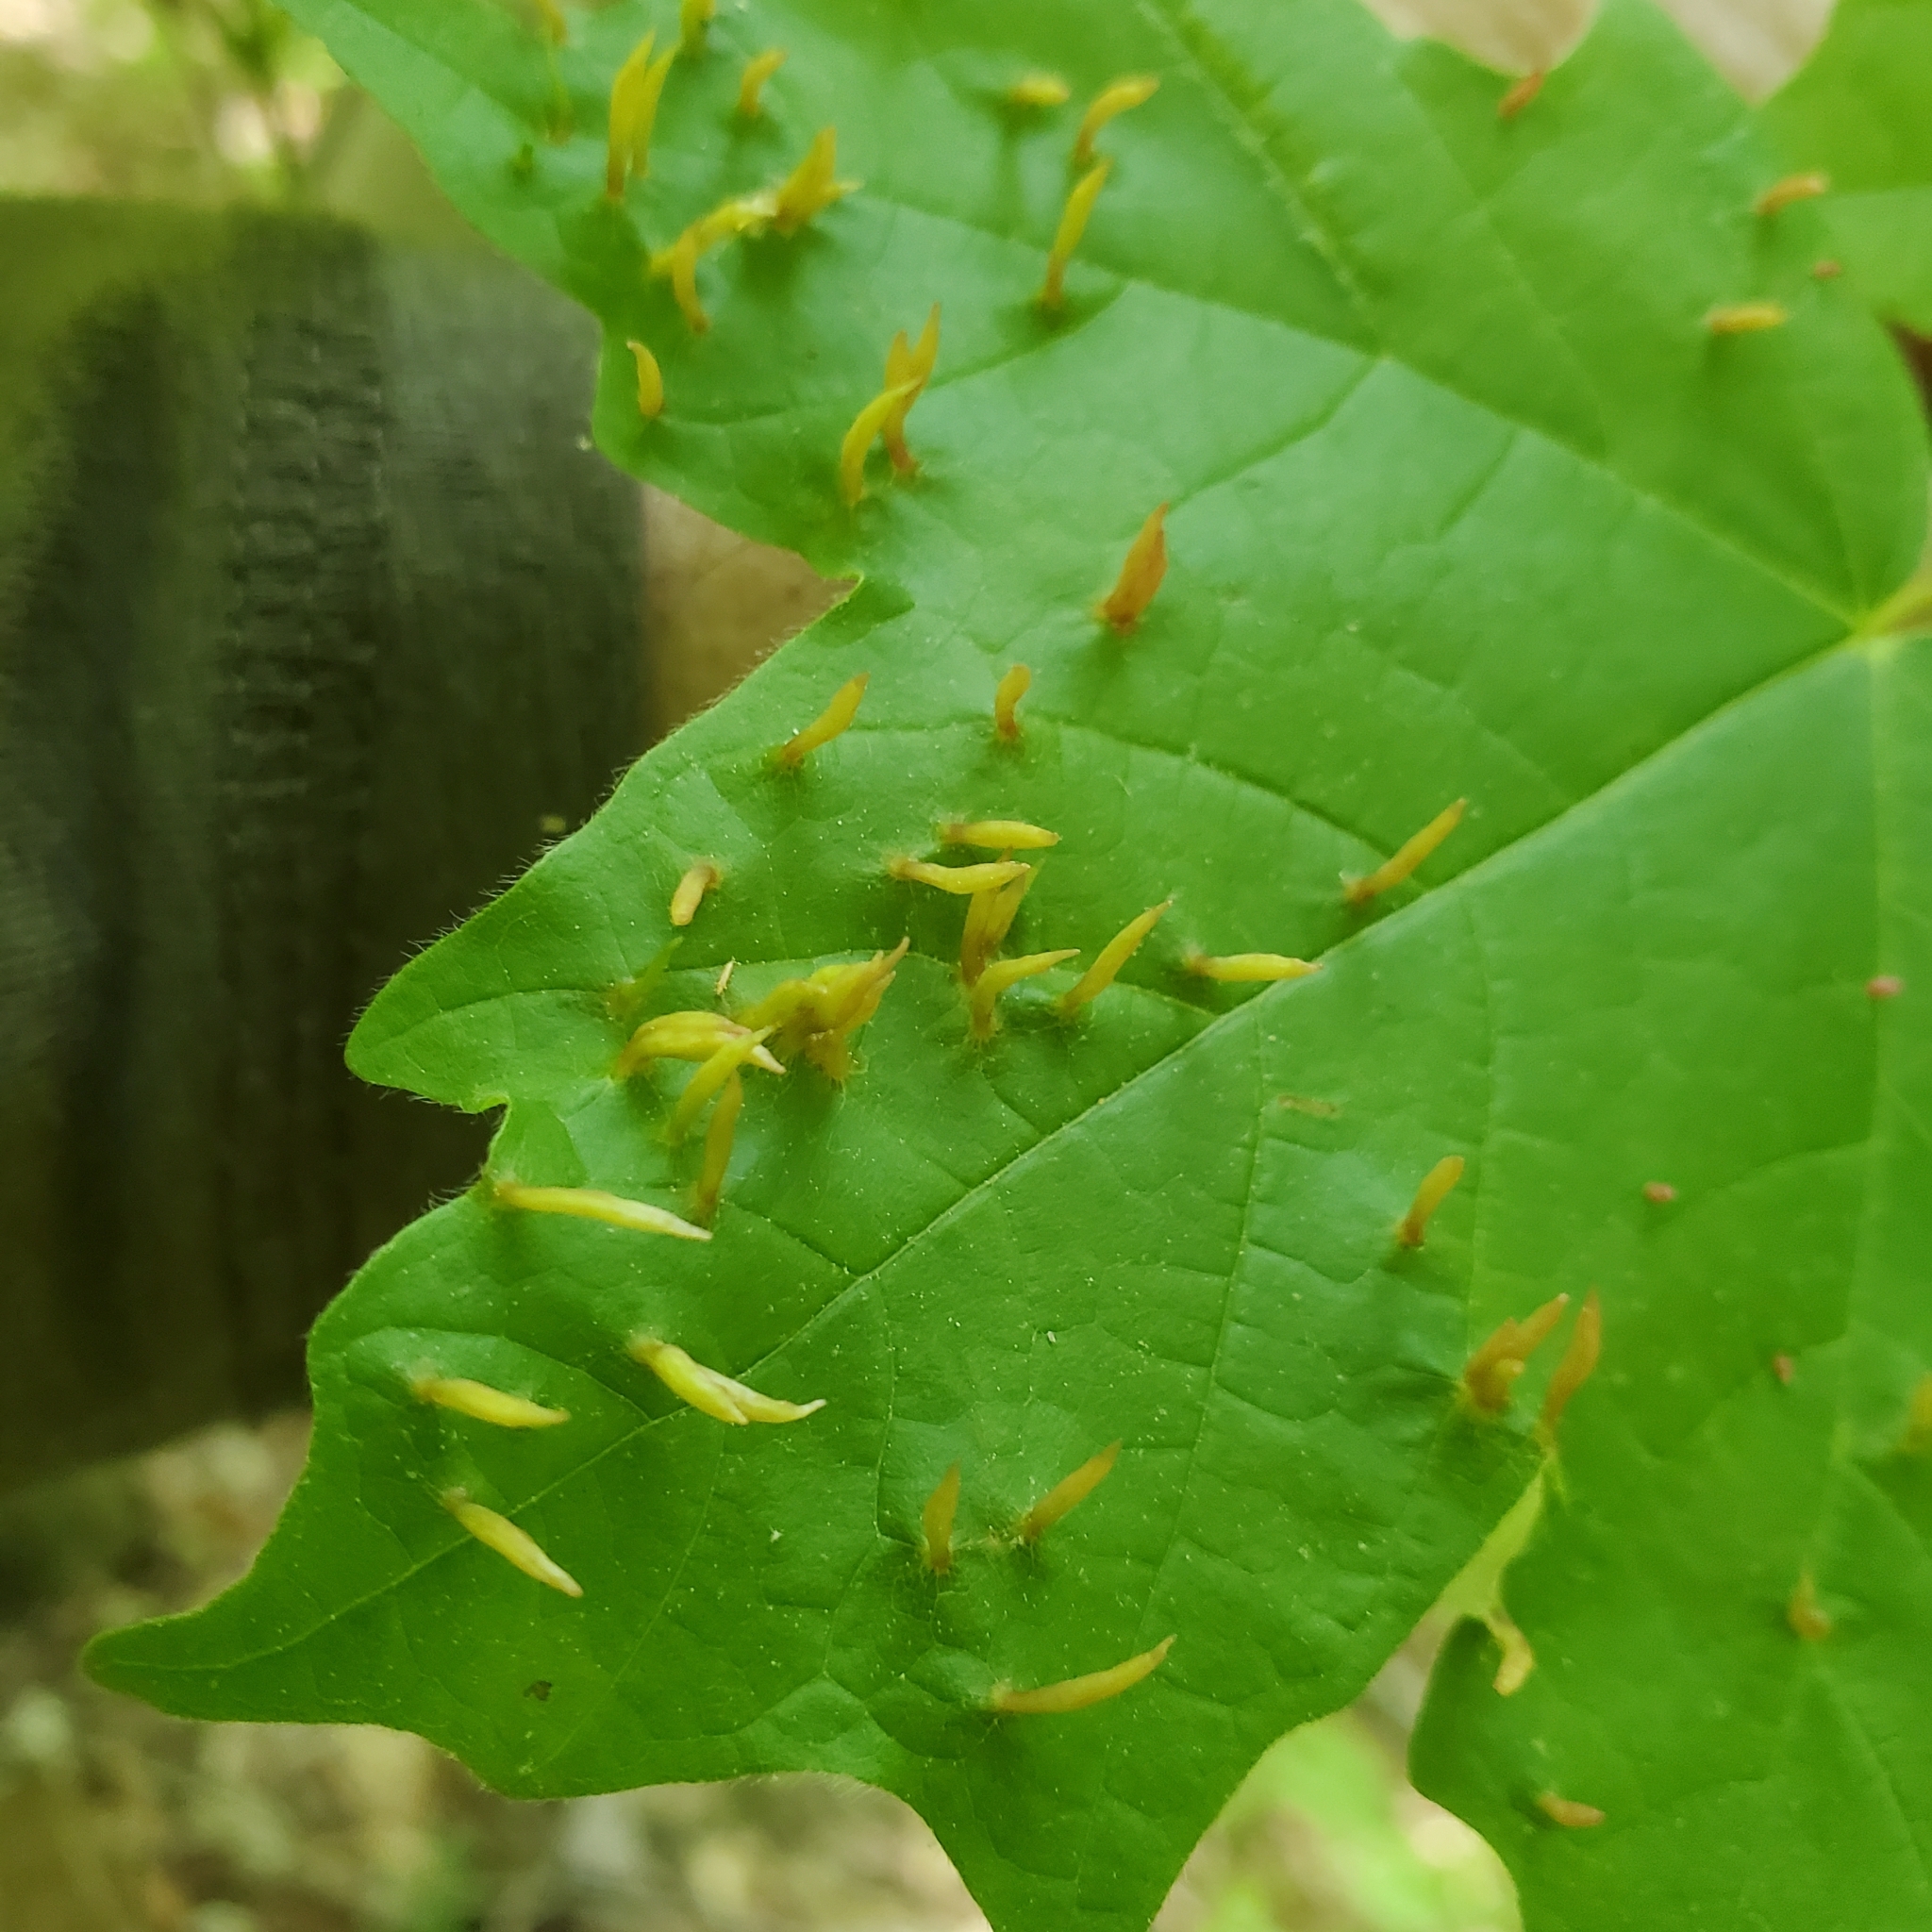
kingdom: Animalia
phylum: Arthropoda
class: Arachnida
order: Trombidiformes
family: Eriophyidae
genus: Vasates
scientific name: Vasates aceriscrumena
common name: Maple spindle gall mite
